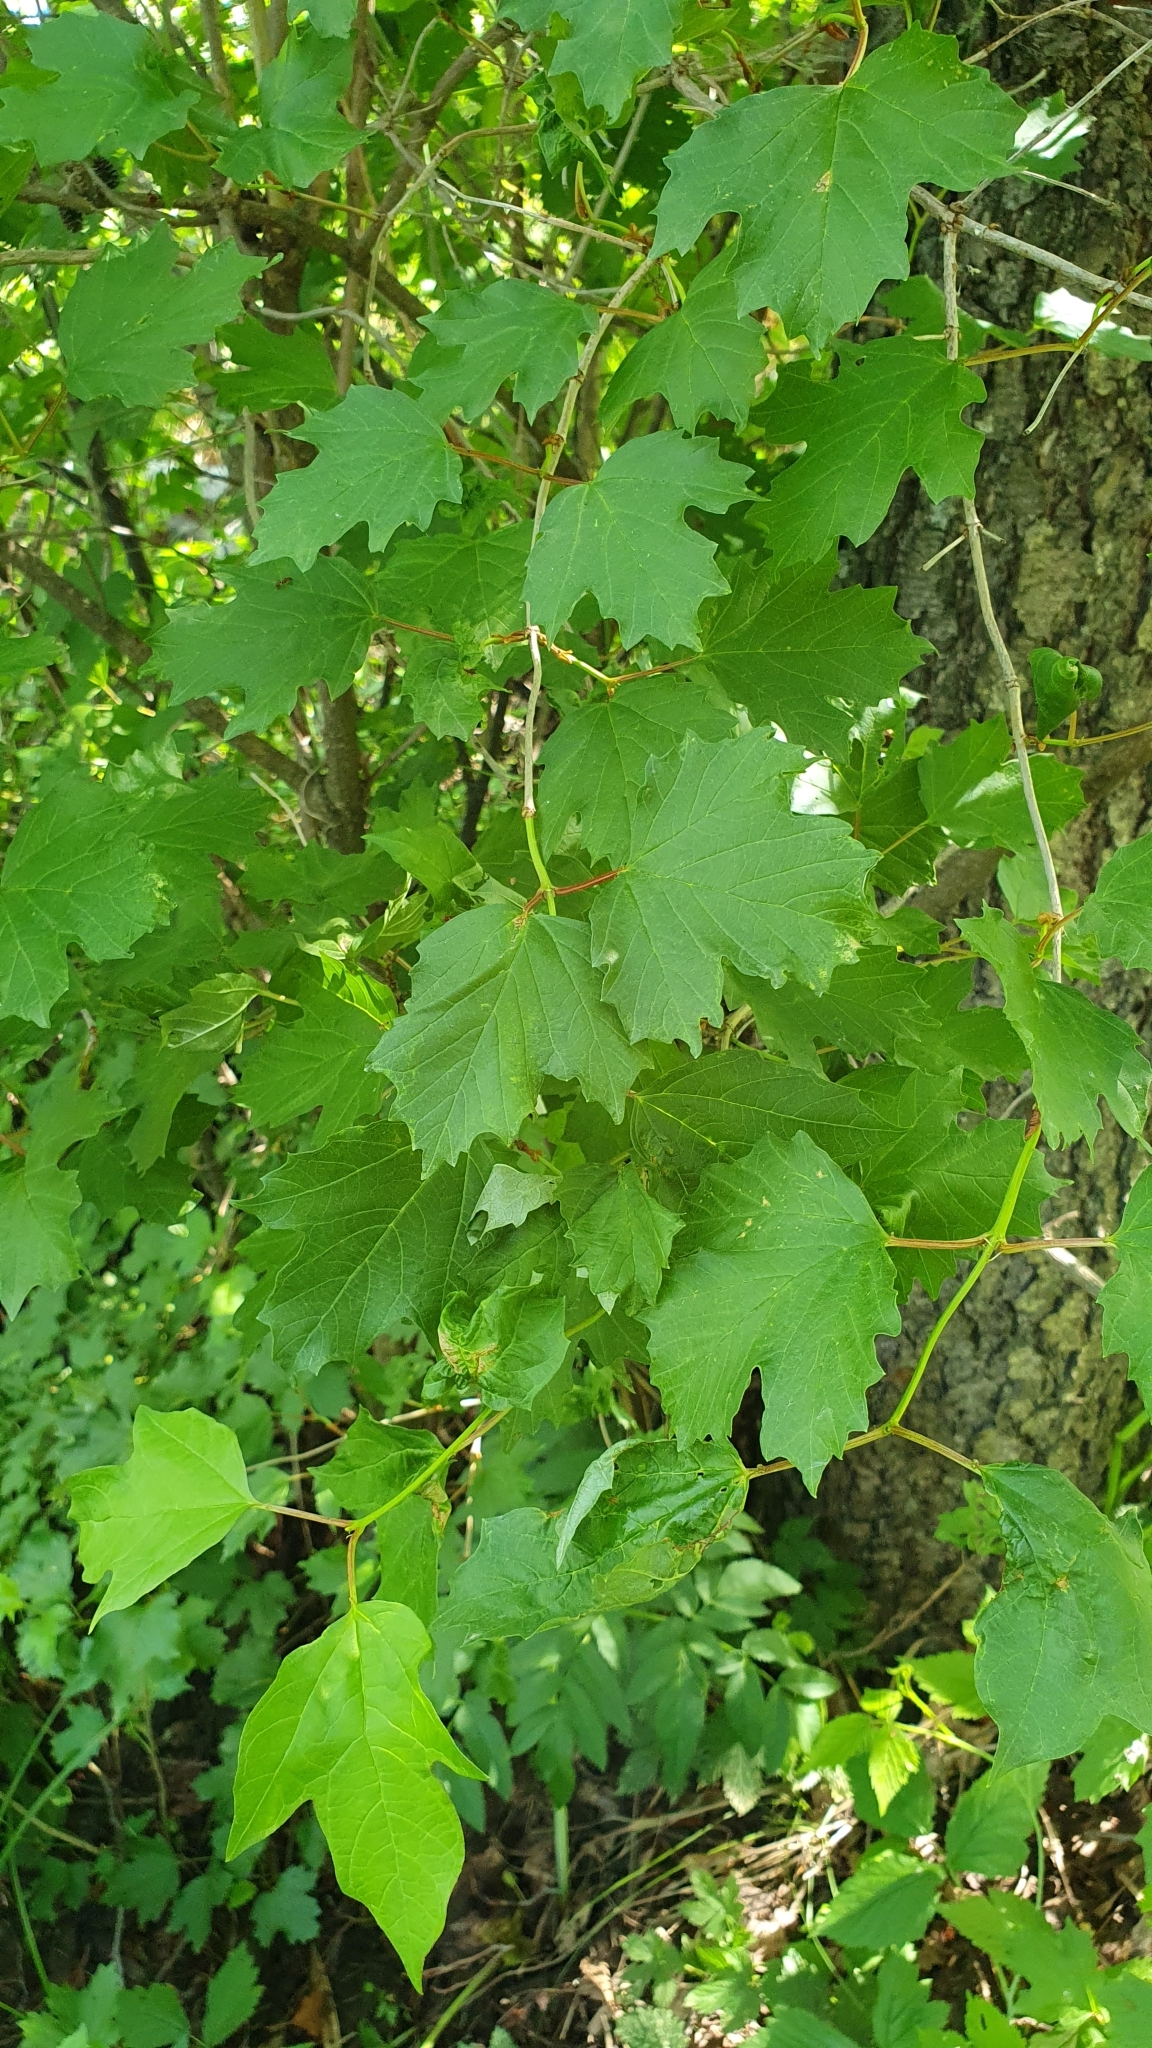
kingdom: Plantae
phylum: Tracheophyta
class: Magnoliopsida
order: Dipsacales
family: Viburnaceae
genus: Viburnum
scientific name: Viburnum opulus
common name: Guelder-rose
